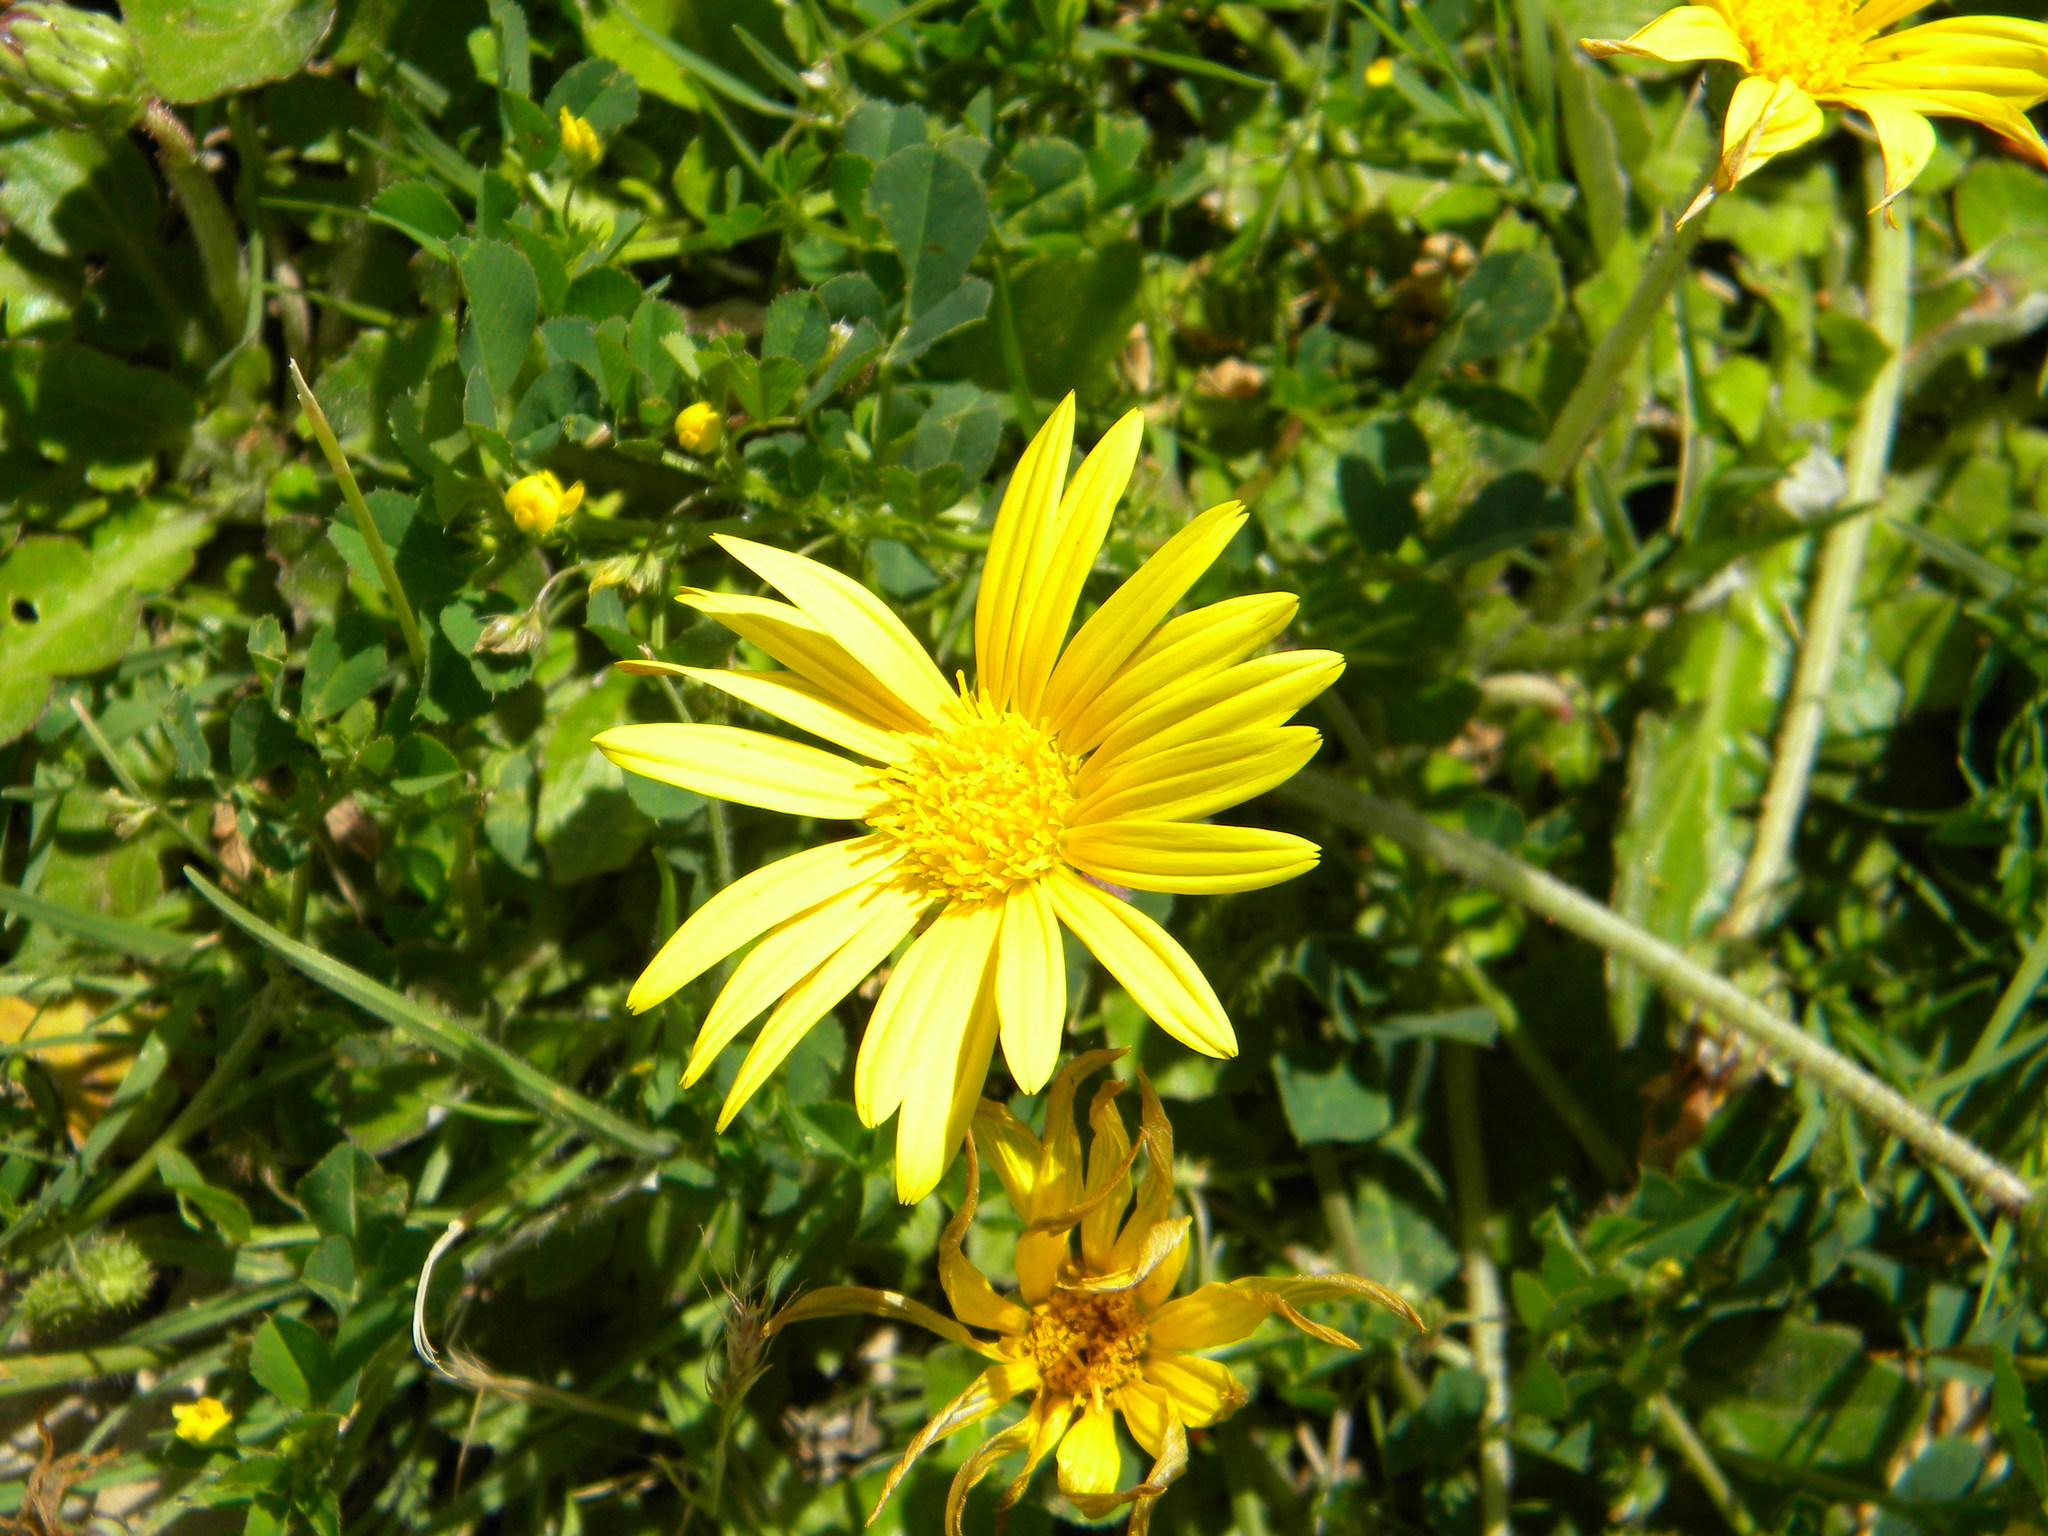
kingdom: Plantae
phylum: Tracheophyta
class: Magnoliopsida
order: Asterales
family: Asteraceae
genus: Arctotheca
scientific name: Arctotheca prostrata
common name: Capeweed
